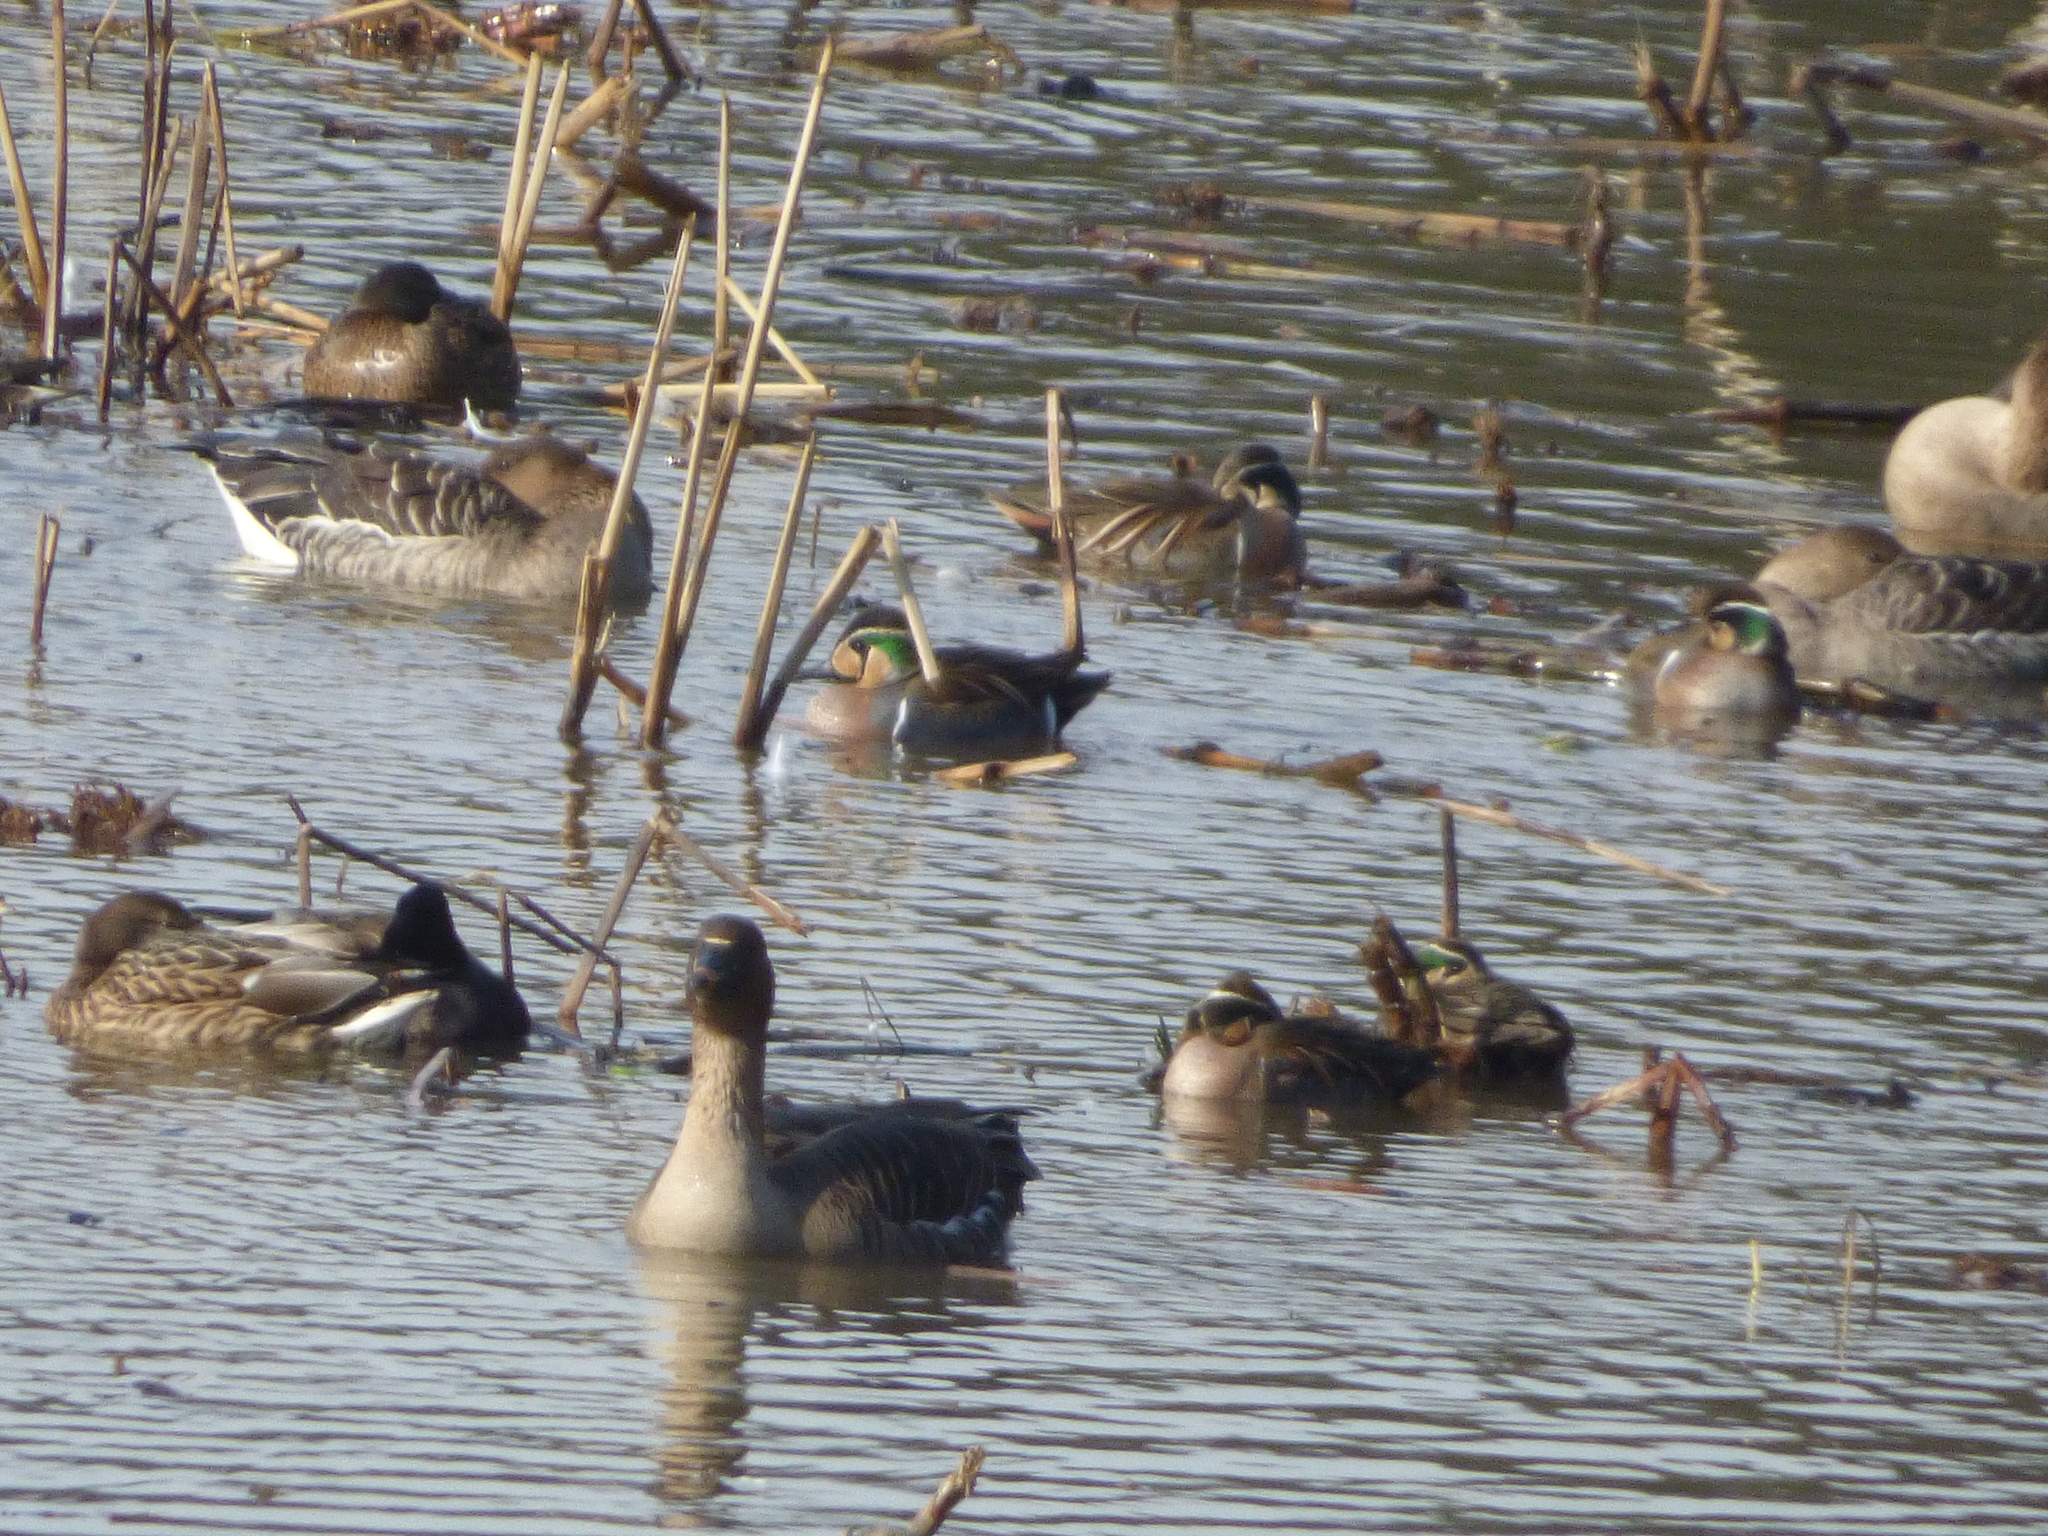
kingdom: Animalia
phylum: Chordata
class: Aves
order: Anseriformes
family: Anatidae
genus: Sibirionetta
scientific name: Sibirionetta formosa
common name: Baikal teal
